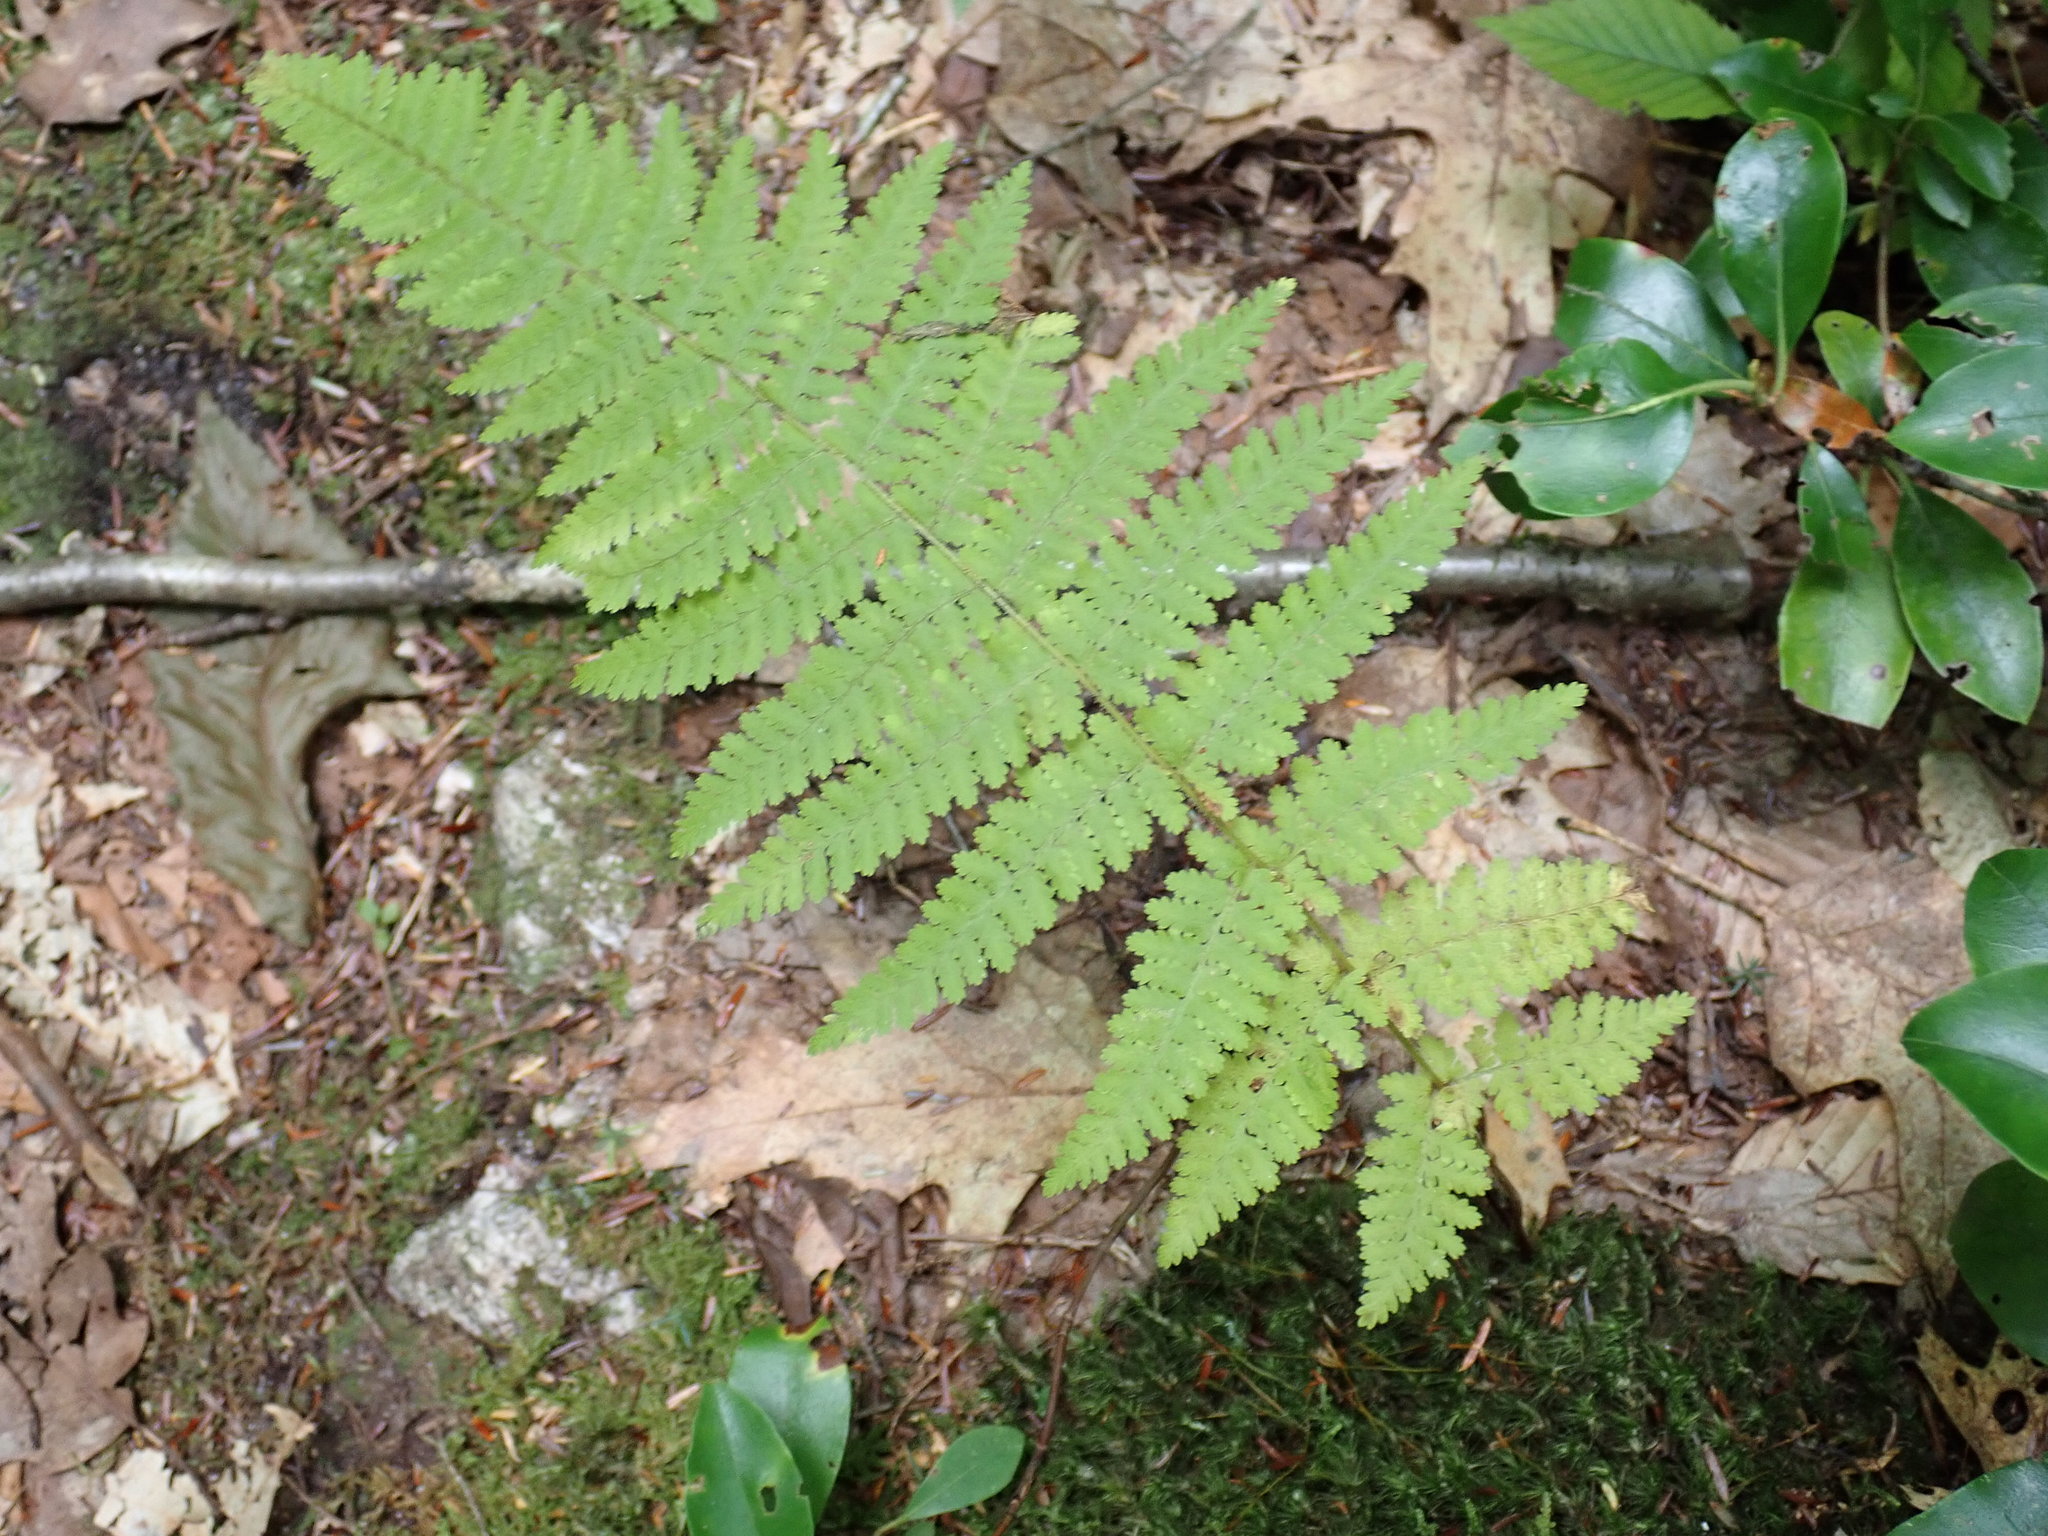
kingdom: Plantae
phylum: Tracheophyta
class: Polypodiopsida
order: Polypodiales
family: Dennstaedtiaceae
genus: Sitobolium
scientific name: Sitobolium punctilobum
